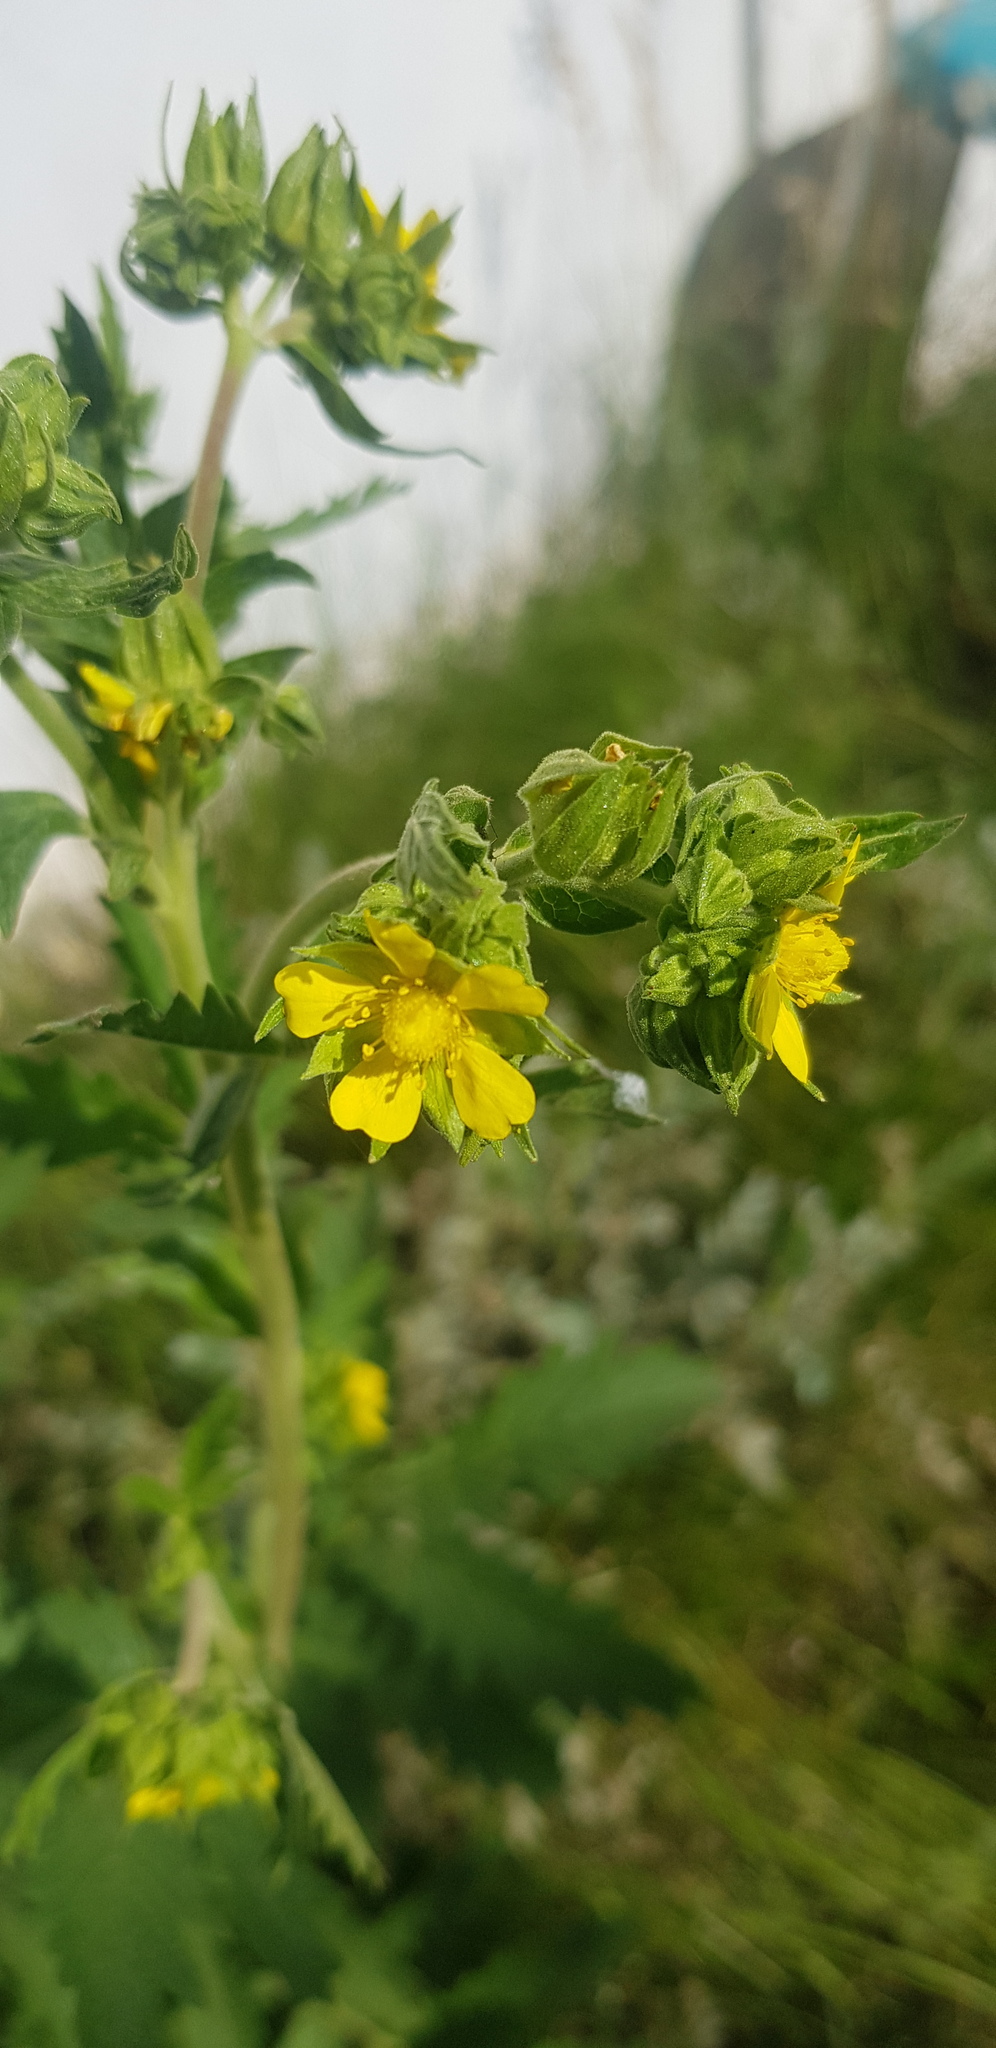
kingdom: Plantae
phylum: Tracheophyta
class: Magnoliopsida
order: Rosales
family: Rosaceae
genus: Potentilla
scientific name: Potentilla tanacetifolia
